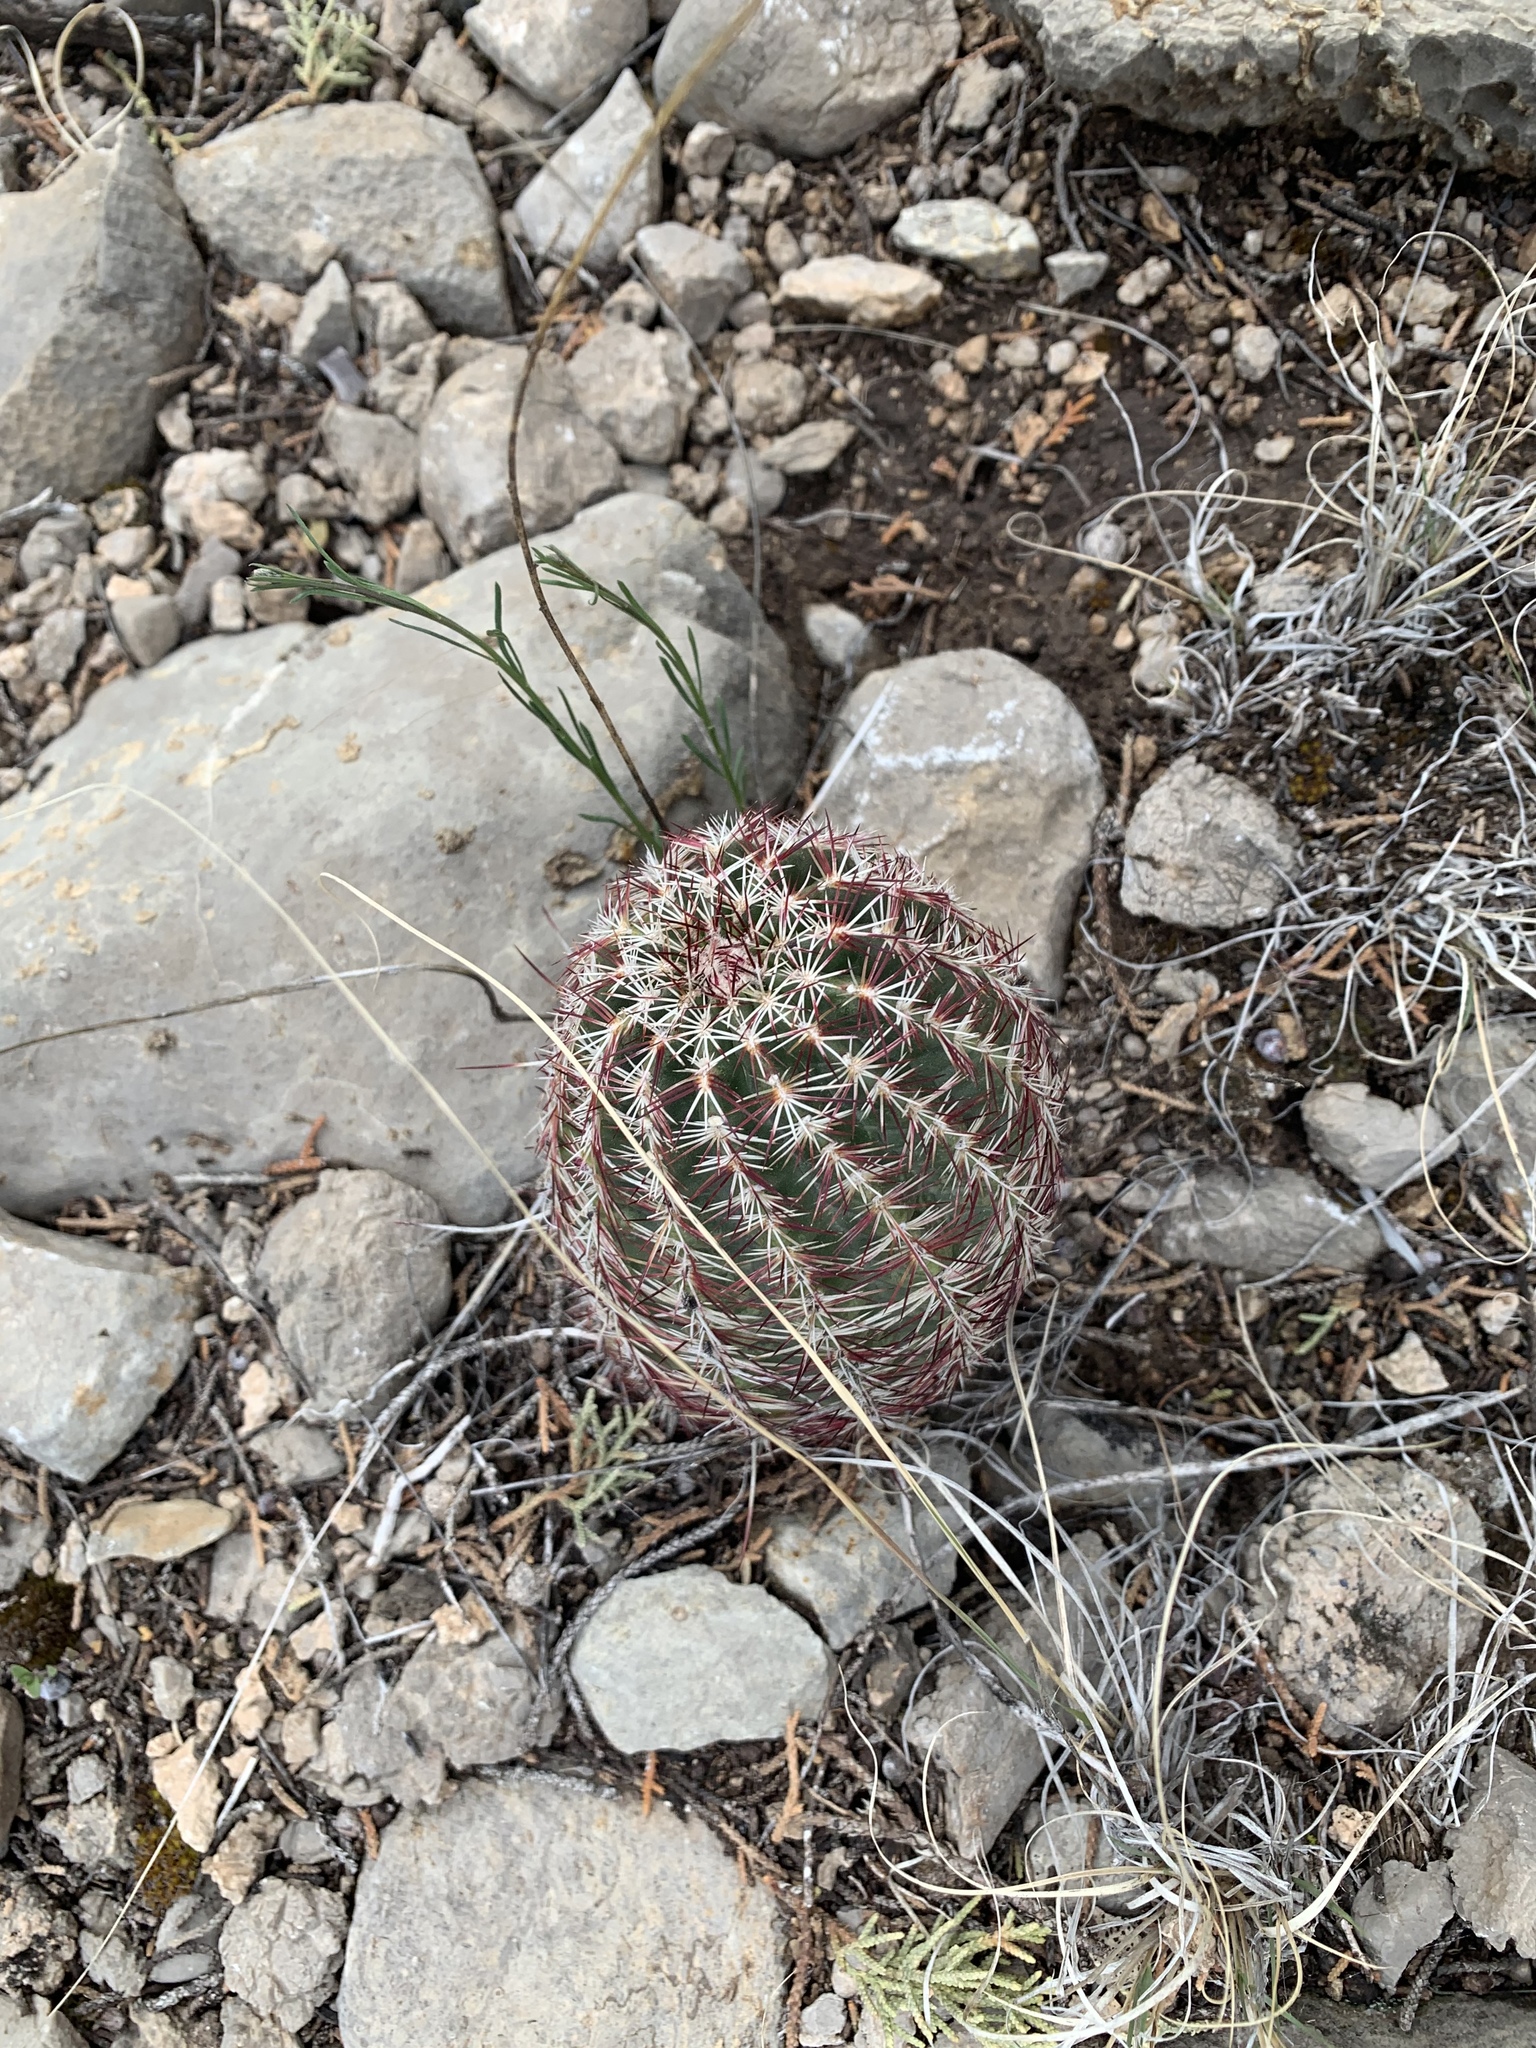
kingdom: Plantae
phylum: Tracheophyta
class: Magnoliopsida
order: Caryophyllales
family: Cactaceae
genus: Echinocereus
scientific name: Echinocereus viridiflorus
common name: Nylon hedgehog cactus
